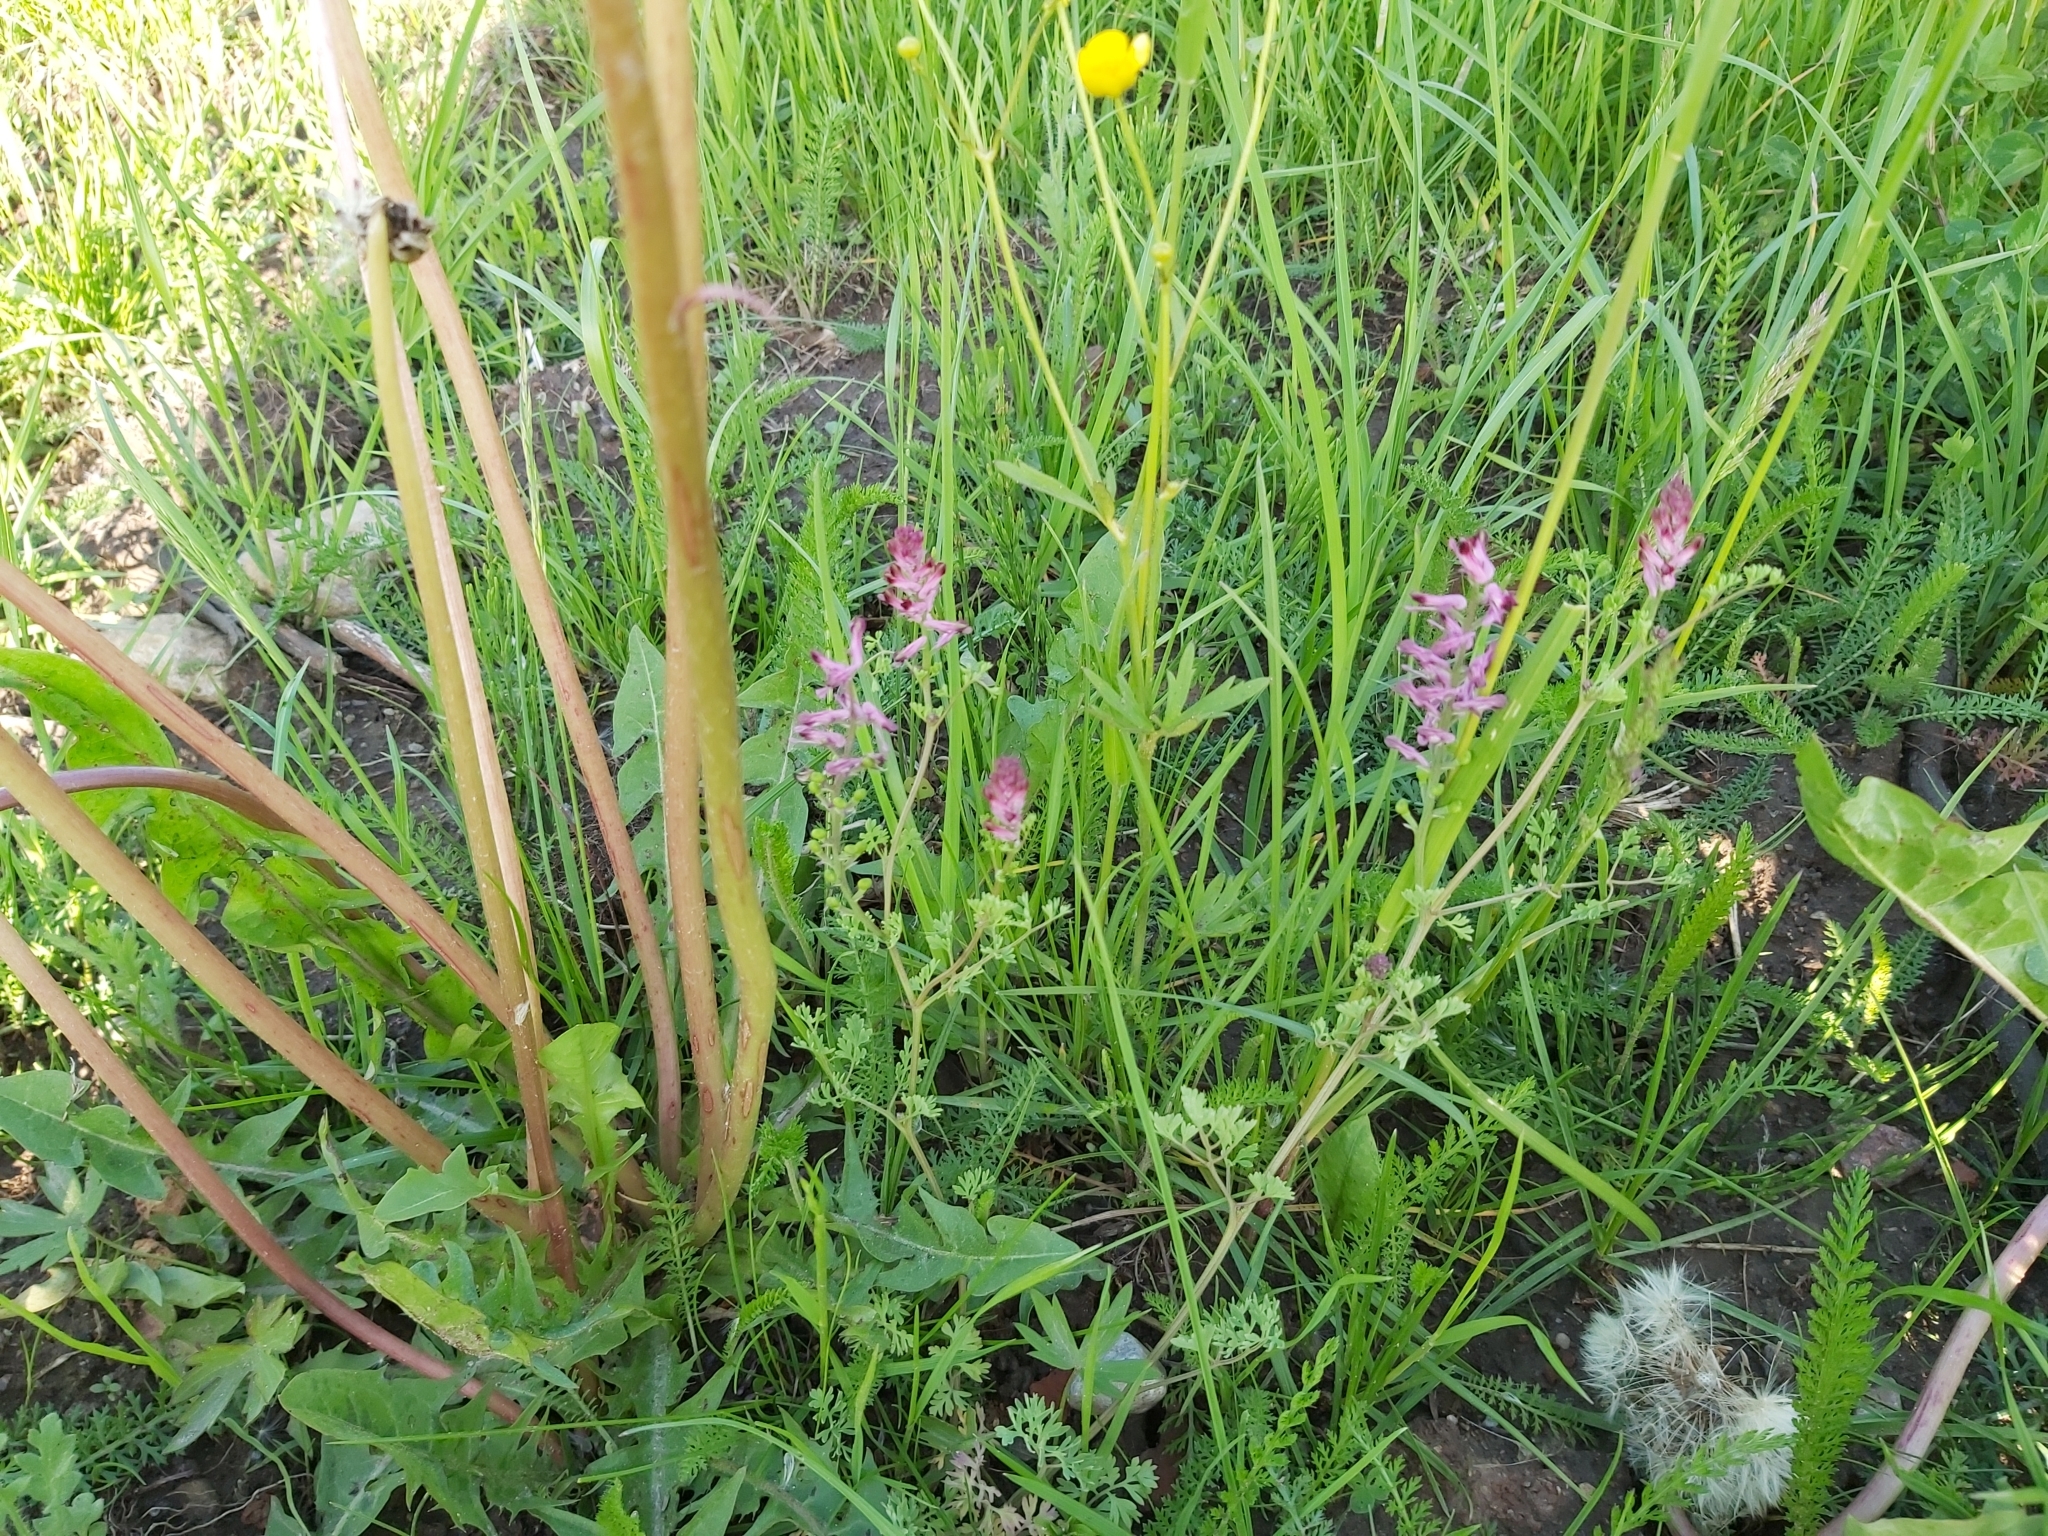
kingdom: Plantae
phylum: Tracheophyta
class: Magnoliopsida
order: Ranunculales
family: Papaveraceae
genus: Fumaria
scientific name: Fumaria officinalis
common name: Common fumitory
